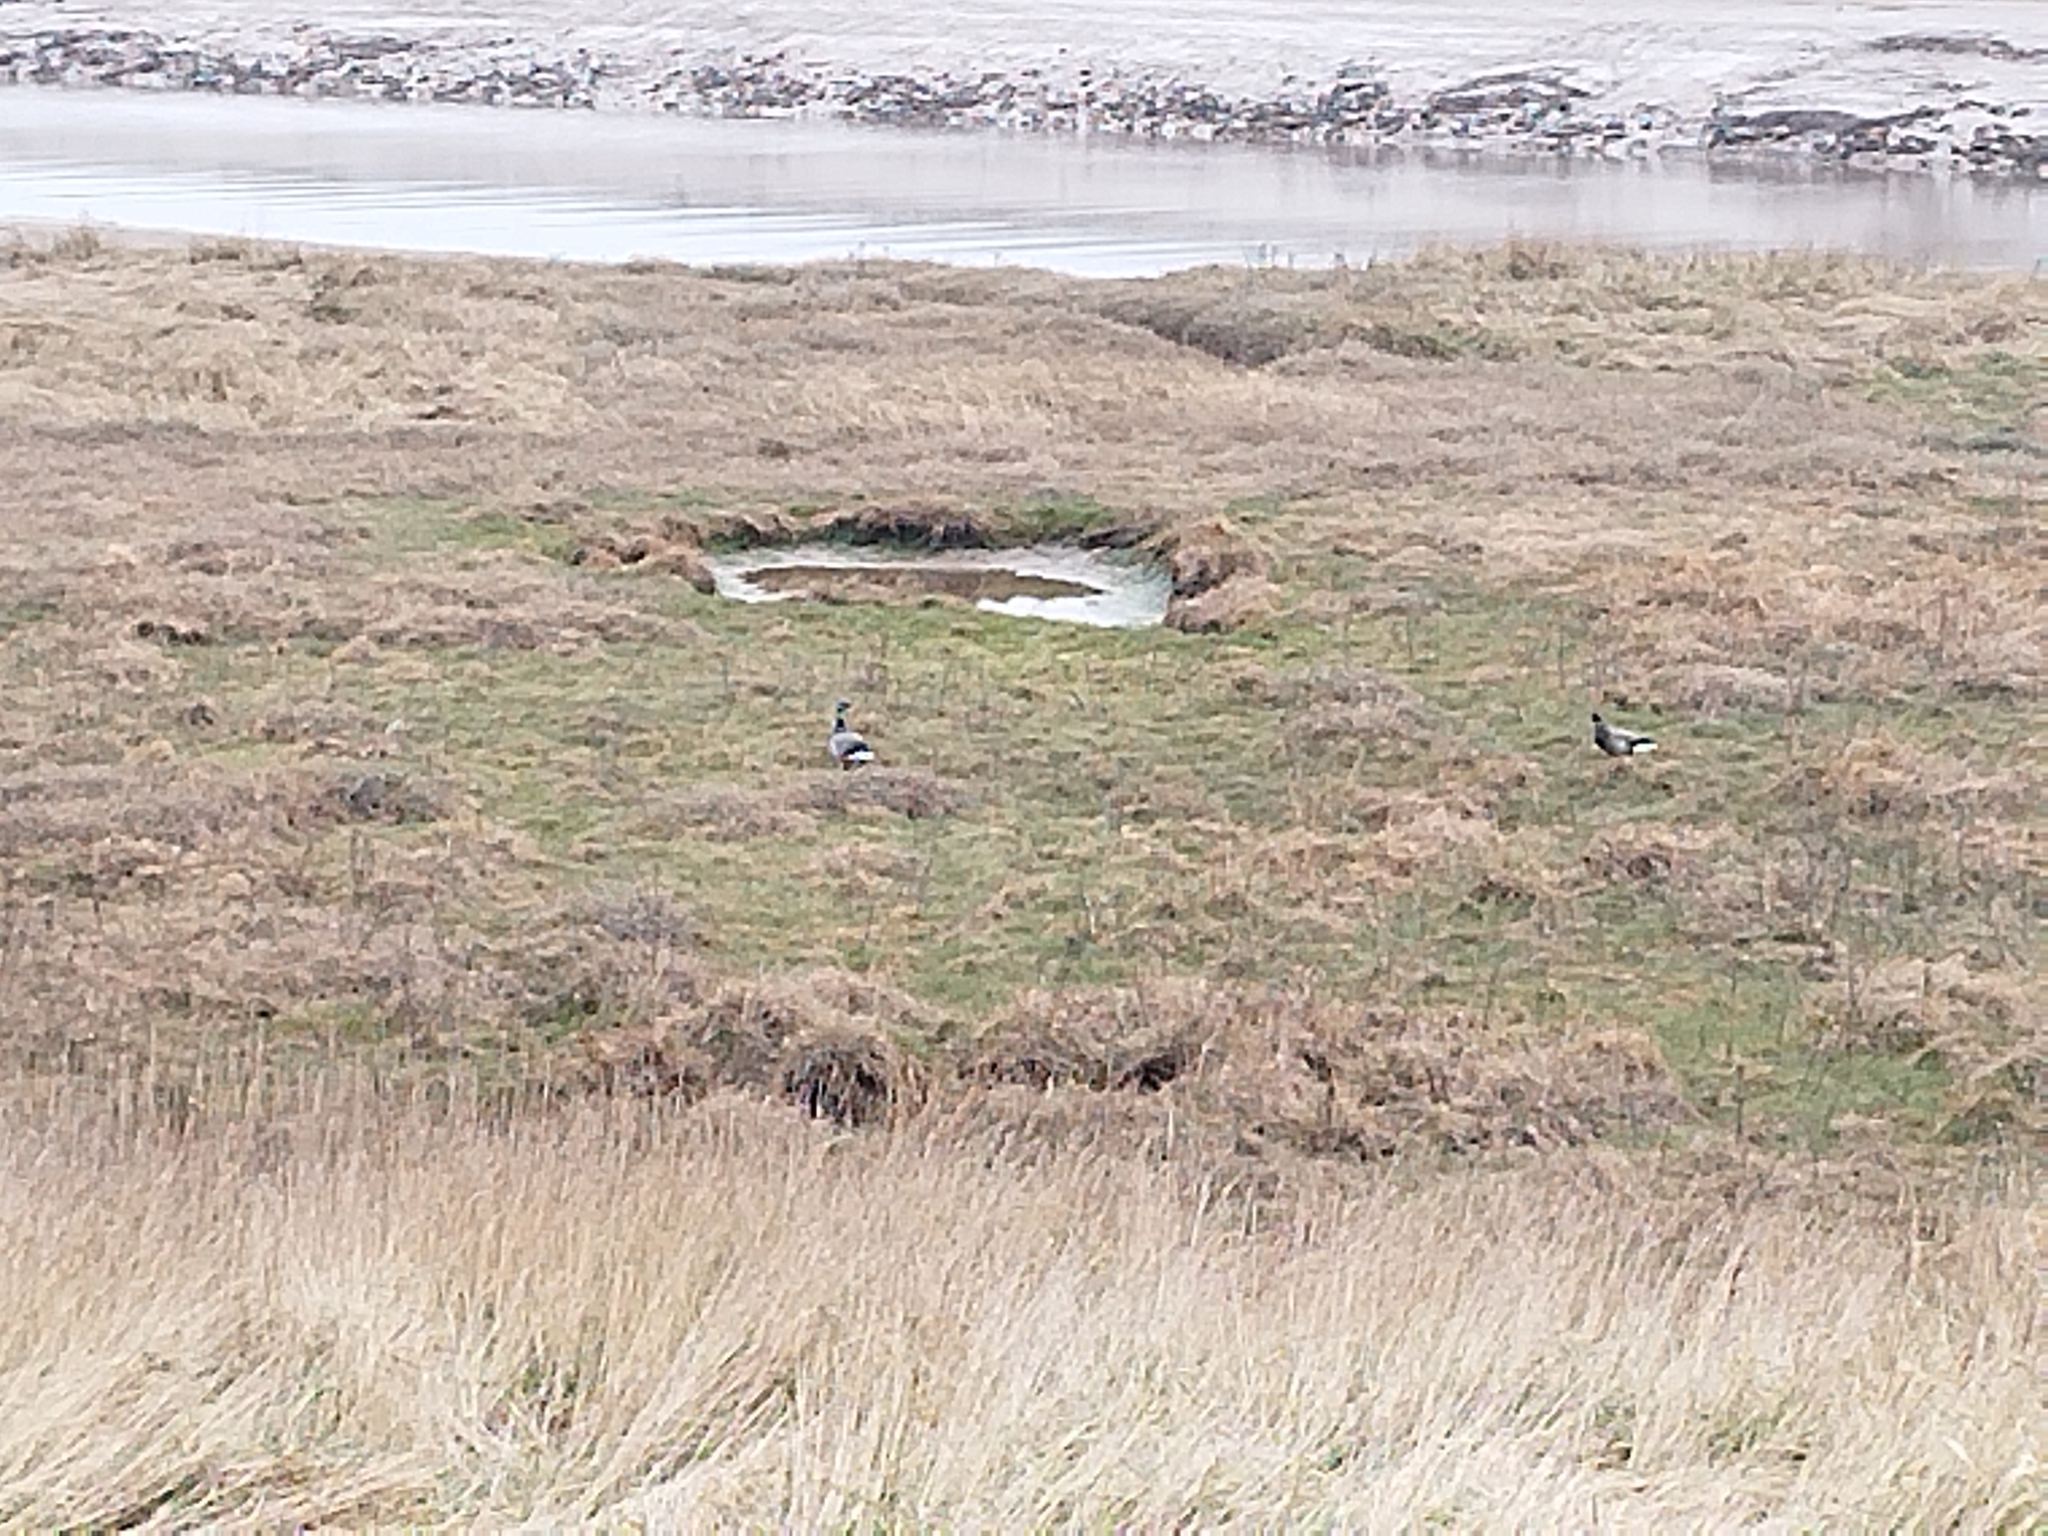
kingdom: Animalia
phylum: Chordata
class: Aves
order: Anseriformes
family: Anatidae
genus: Branta
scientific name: Branta bernicla
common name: Brant goose
